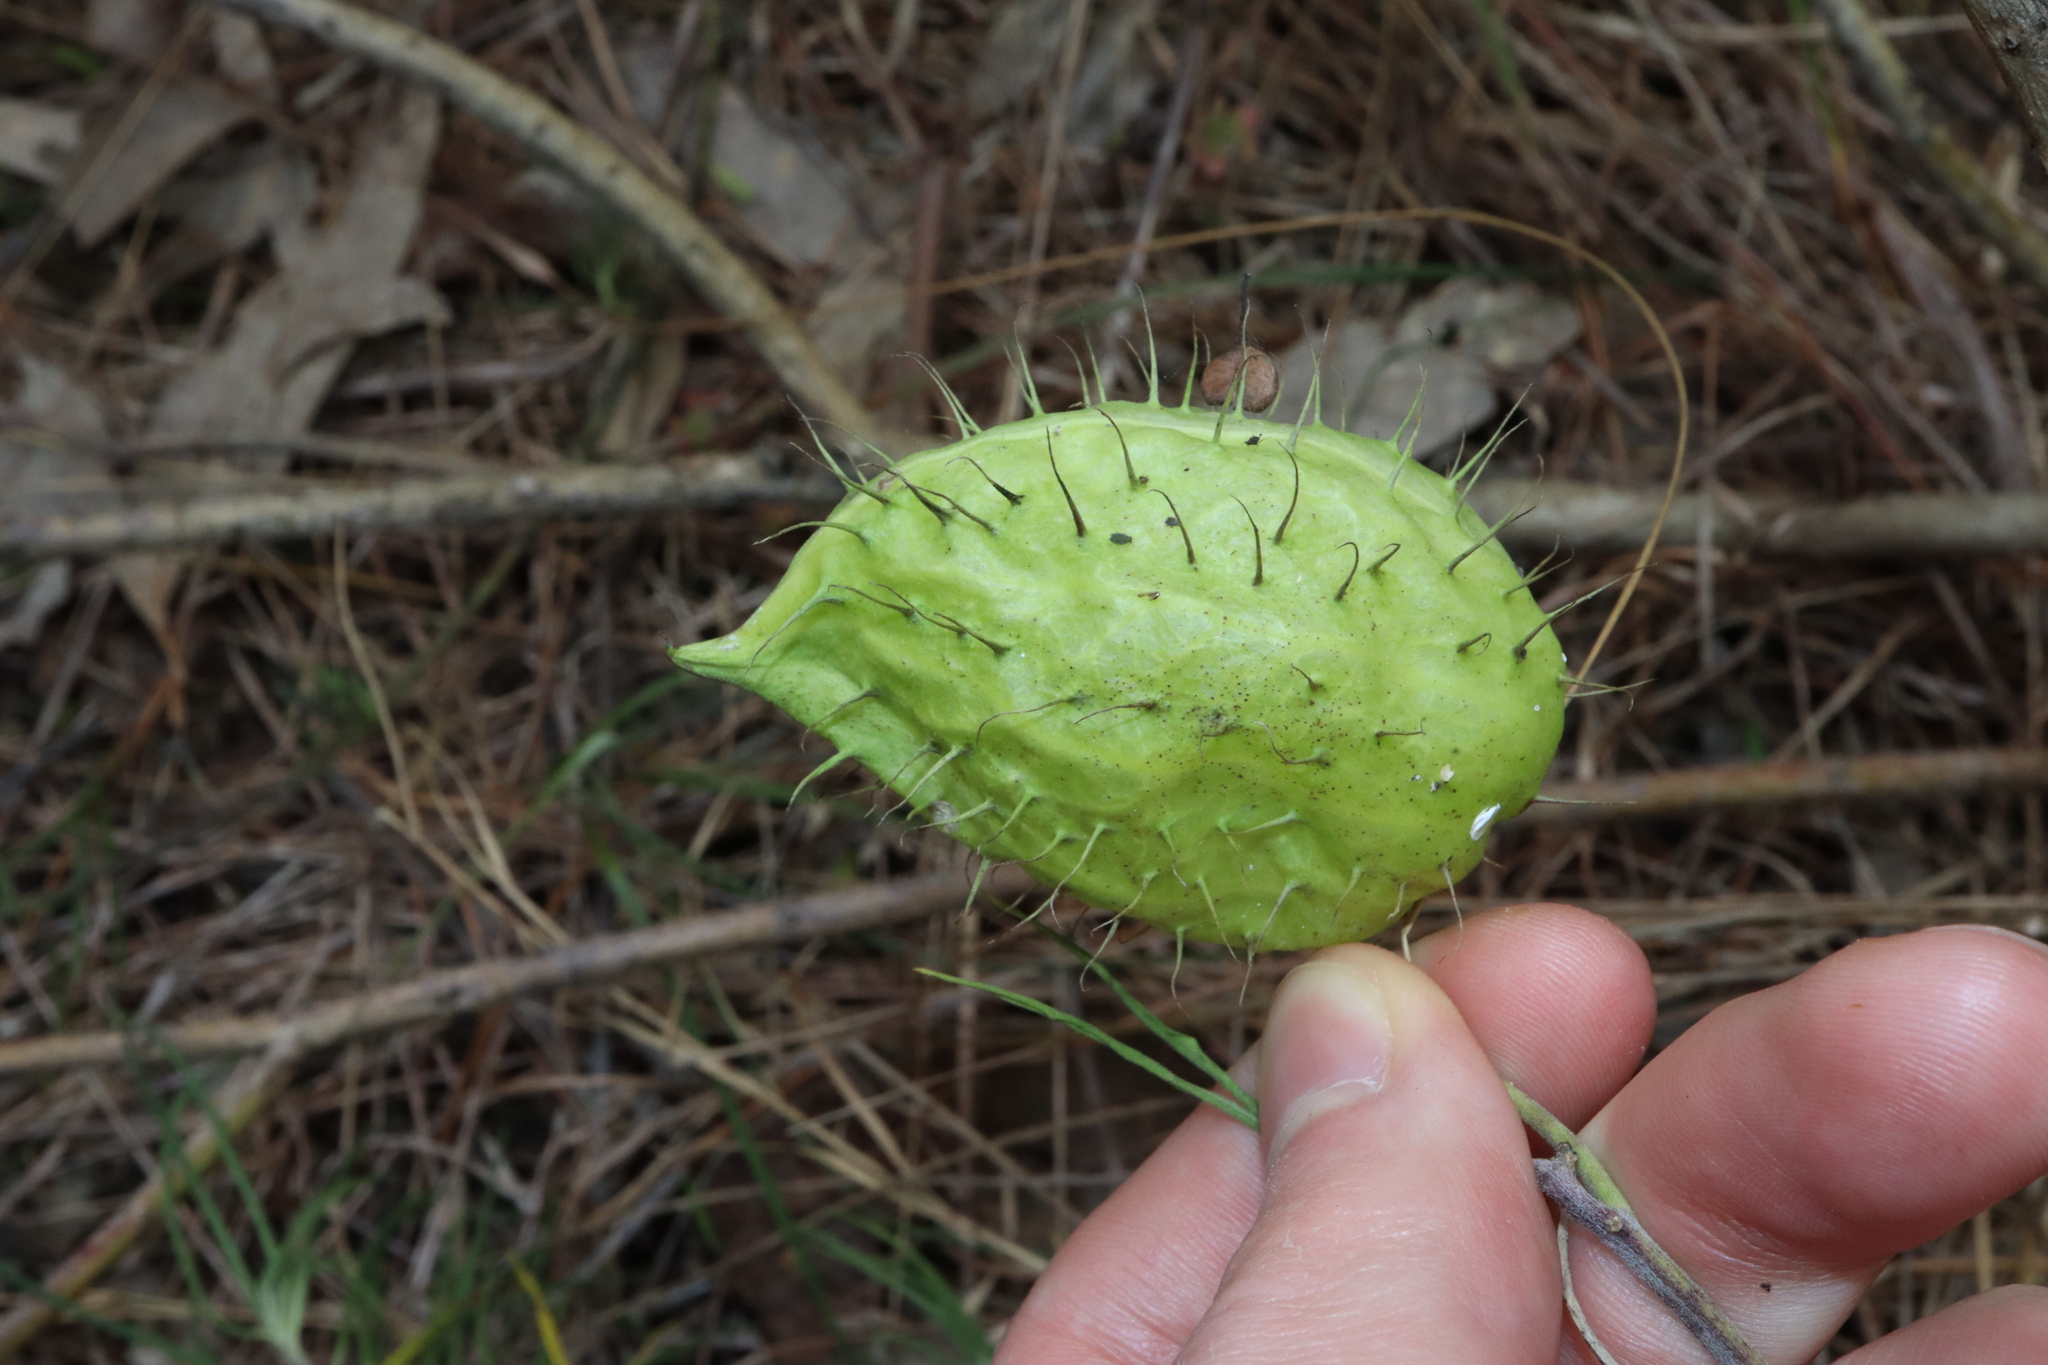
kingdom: Plantae
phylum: Tracheophyta
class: Magnoliopsida
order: Gentianales
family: Apocynaceae
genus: Gomphocarpus
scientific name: Gomphocarpus fruticosus
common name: Milkweed
